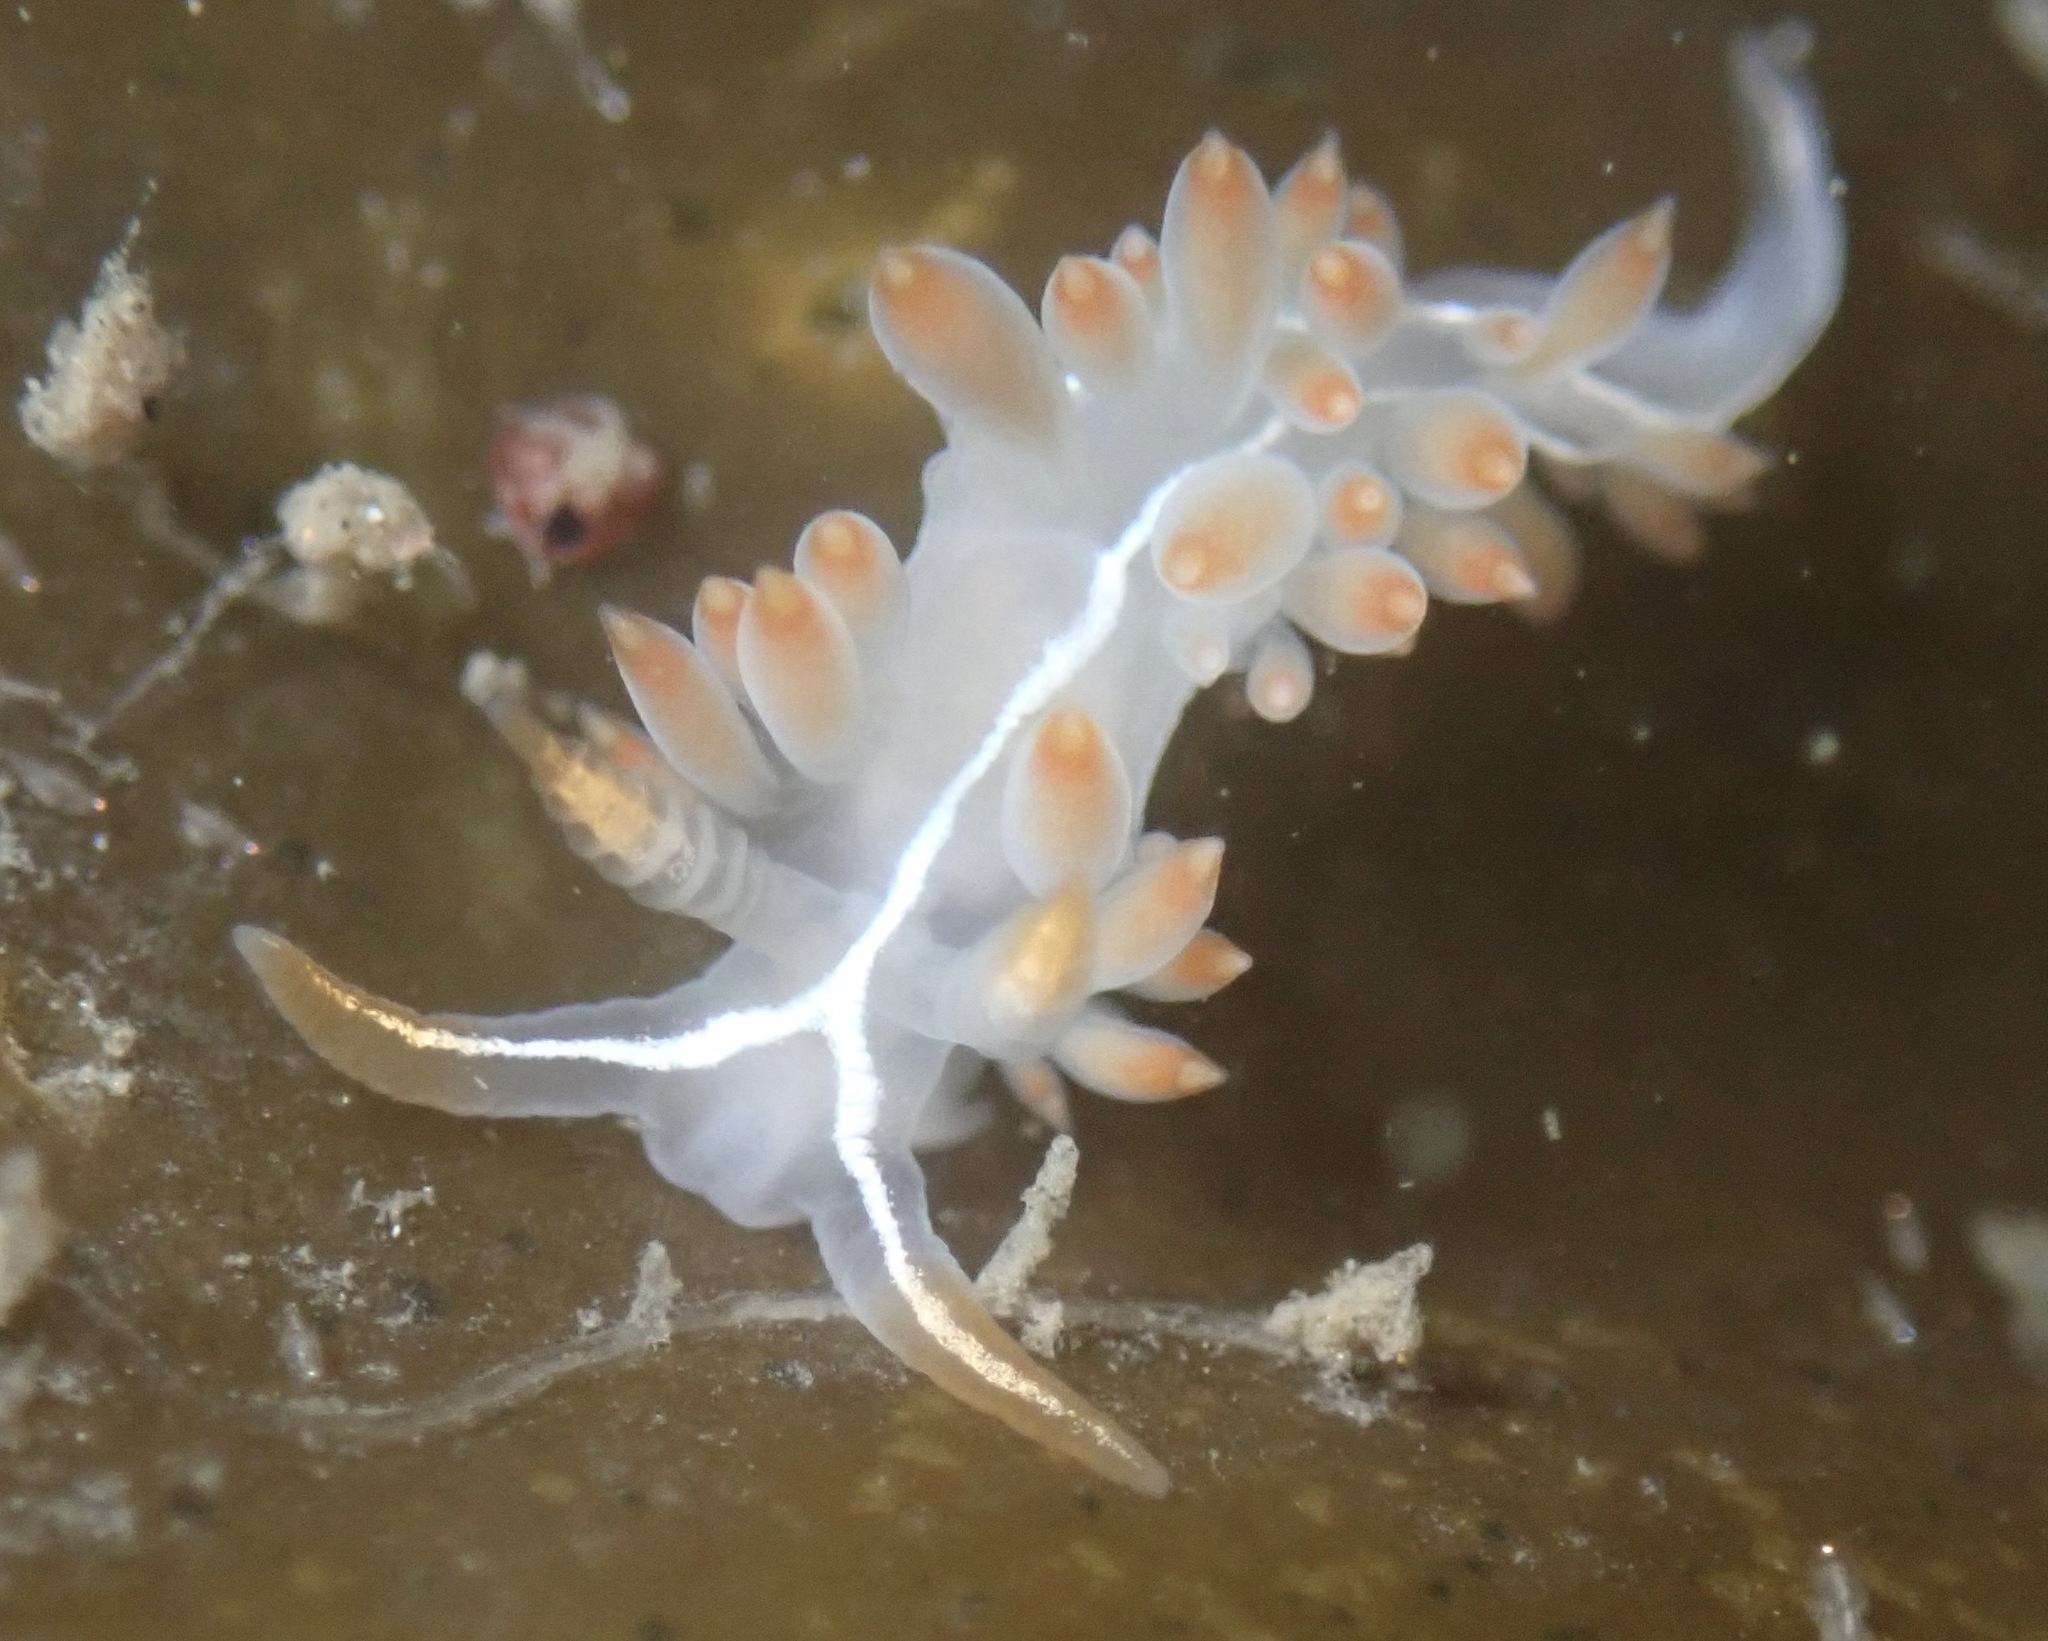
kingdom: Animalia
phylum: Mollusca
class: Gastropoda
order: Nudibranchia
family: Coryphellidae
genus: Coryphella
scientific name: Coryphella trilineata
